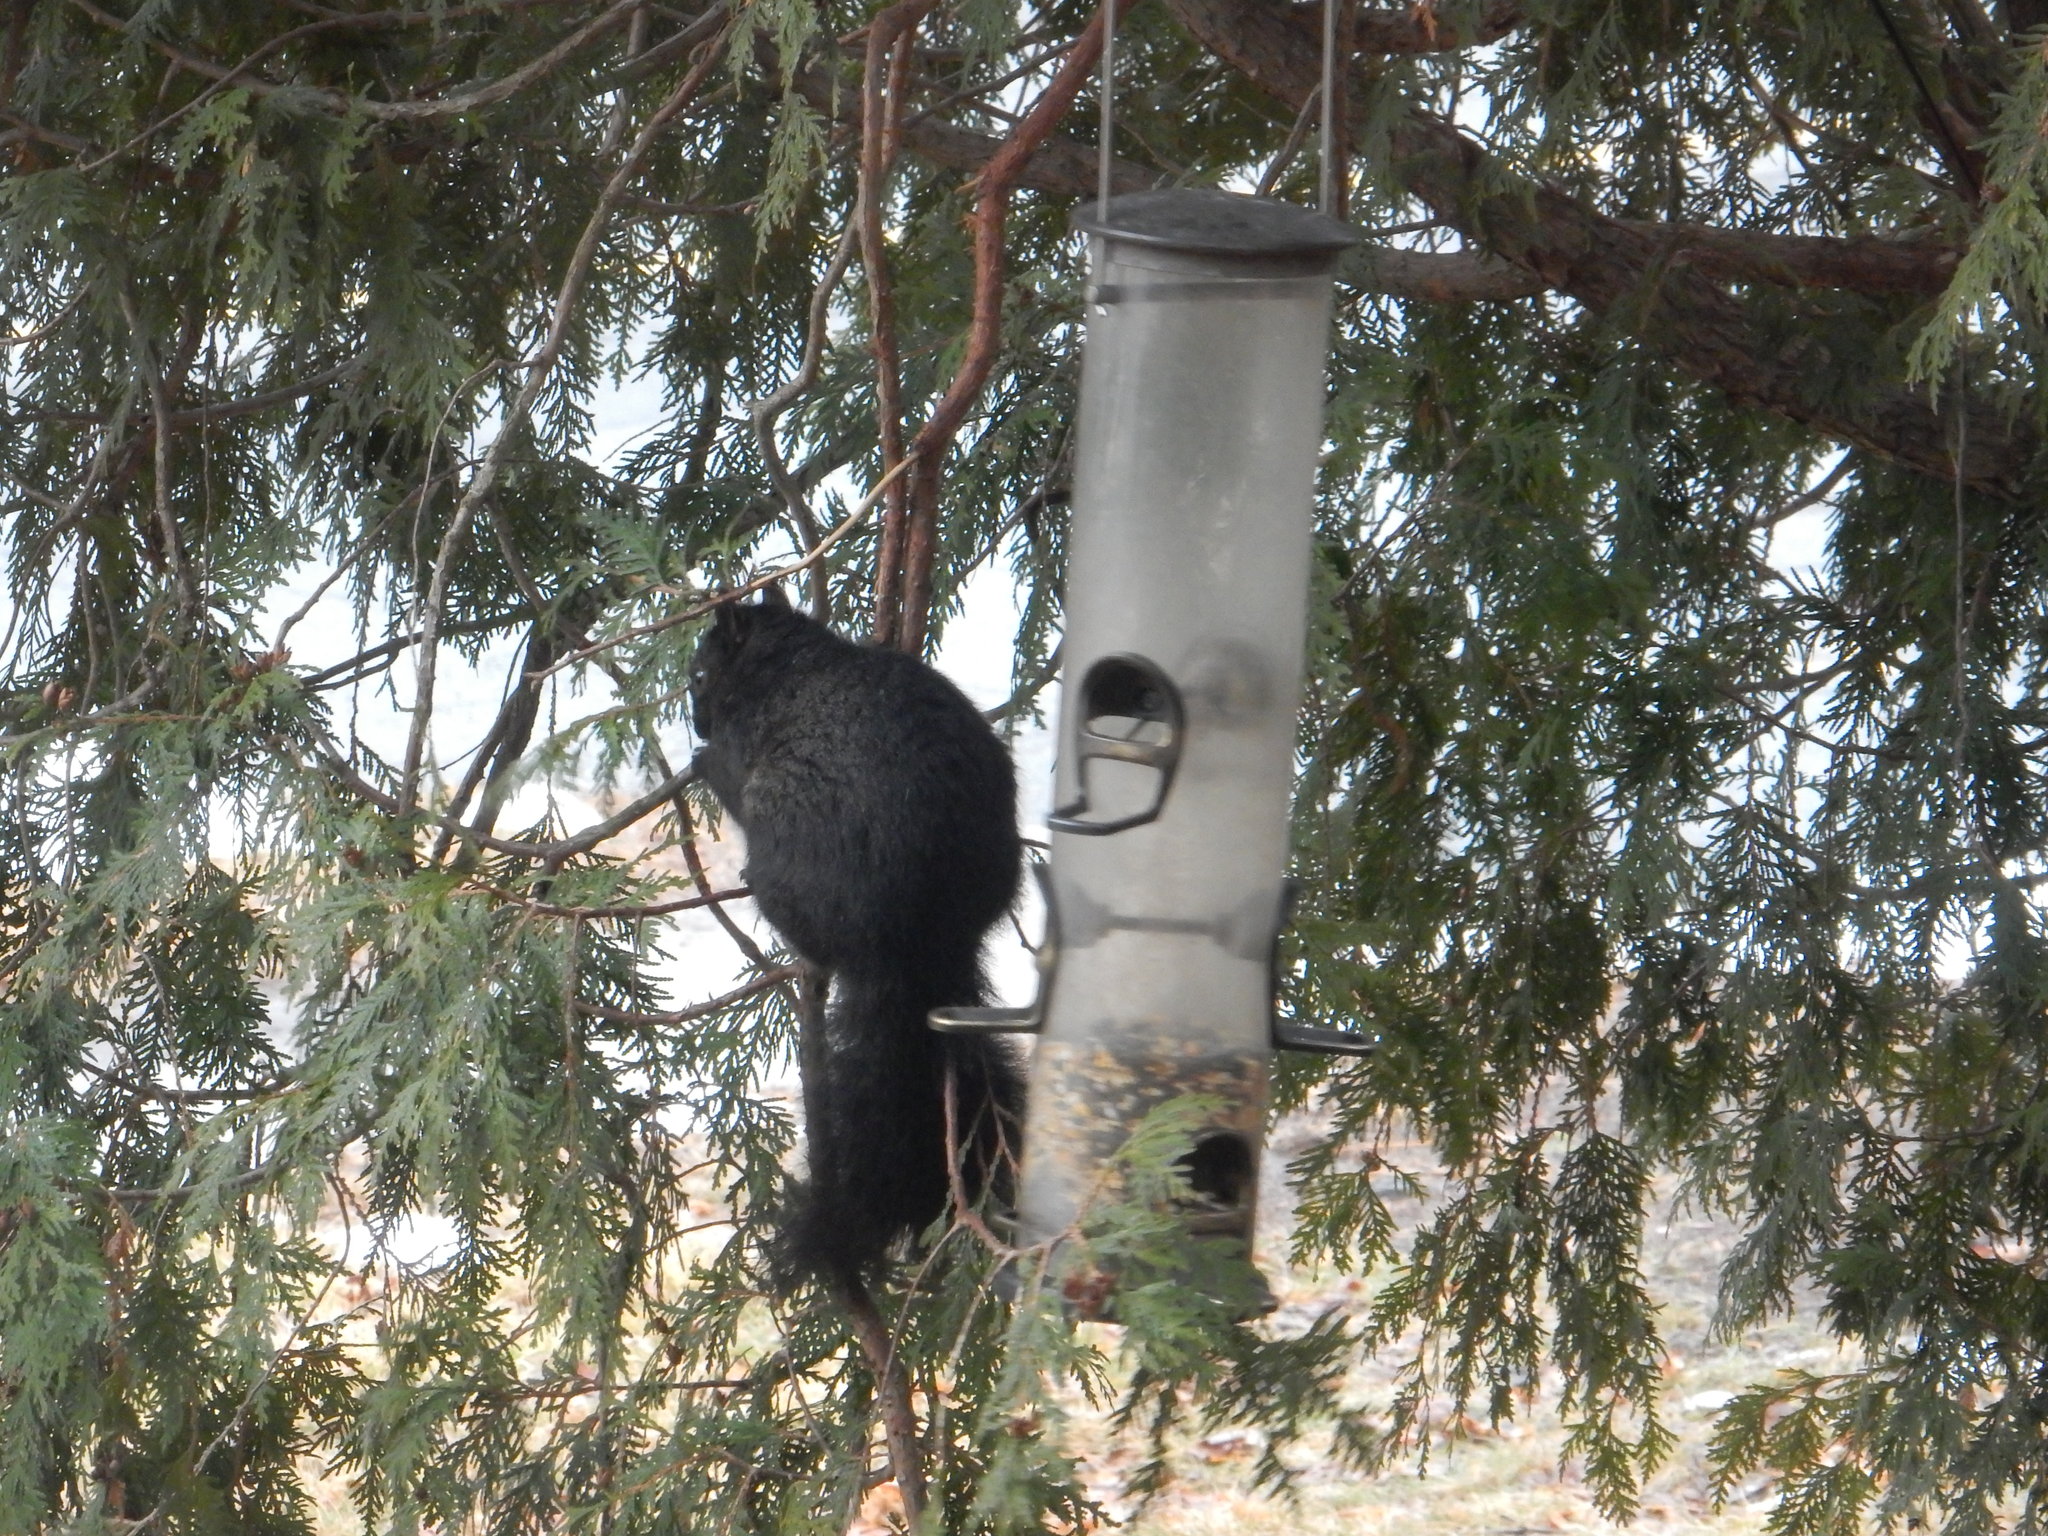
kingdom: Animalia
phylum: Chordata
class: Mammalia
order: Rodentia
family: Sciuridae
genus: Sciurus
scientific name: Sciurus carolinensis
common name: Eastern gray squirrel
